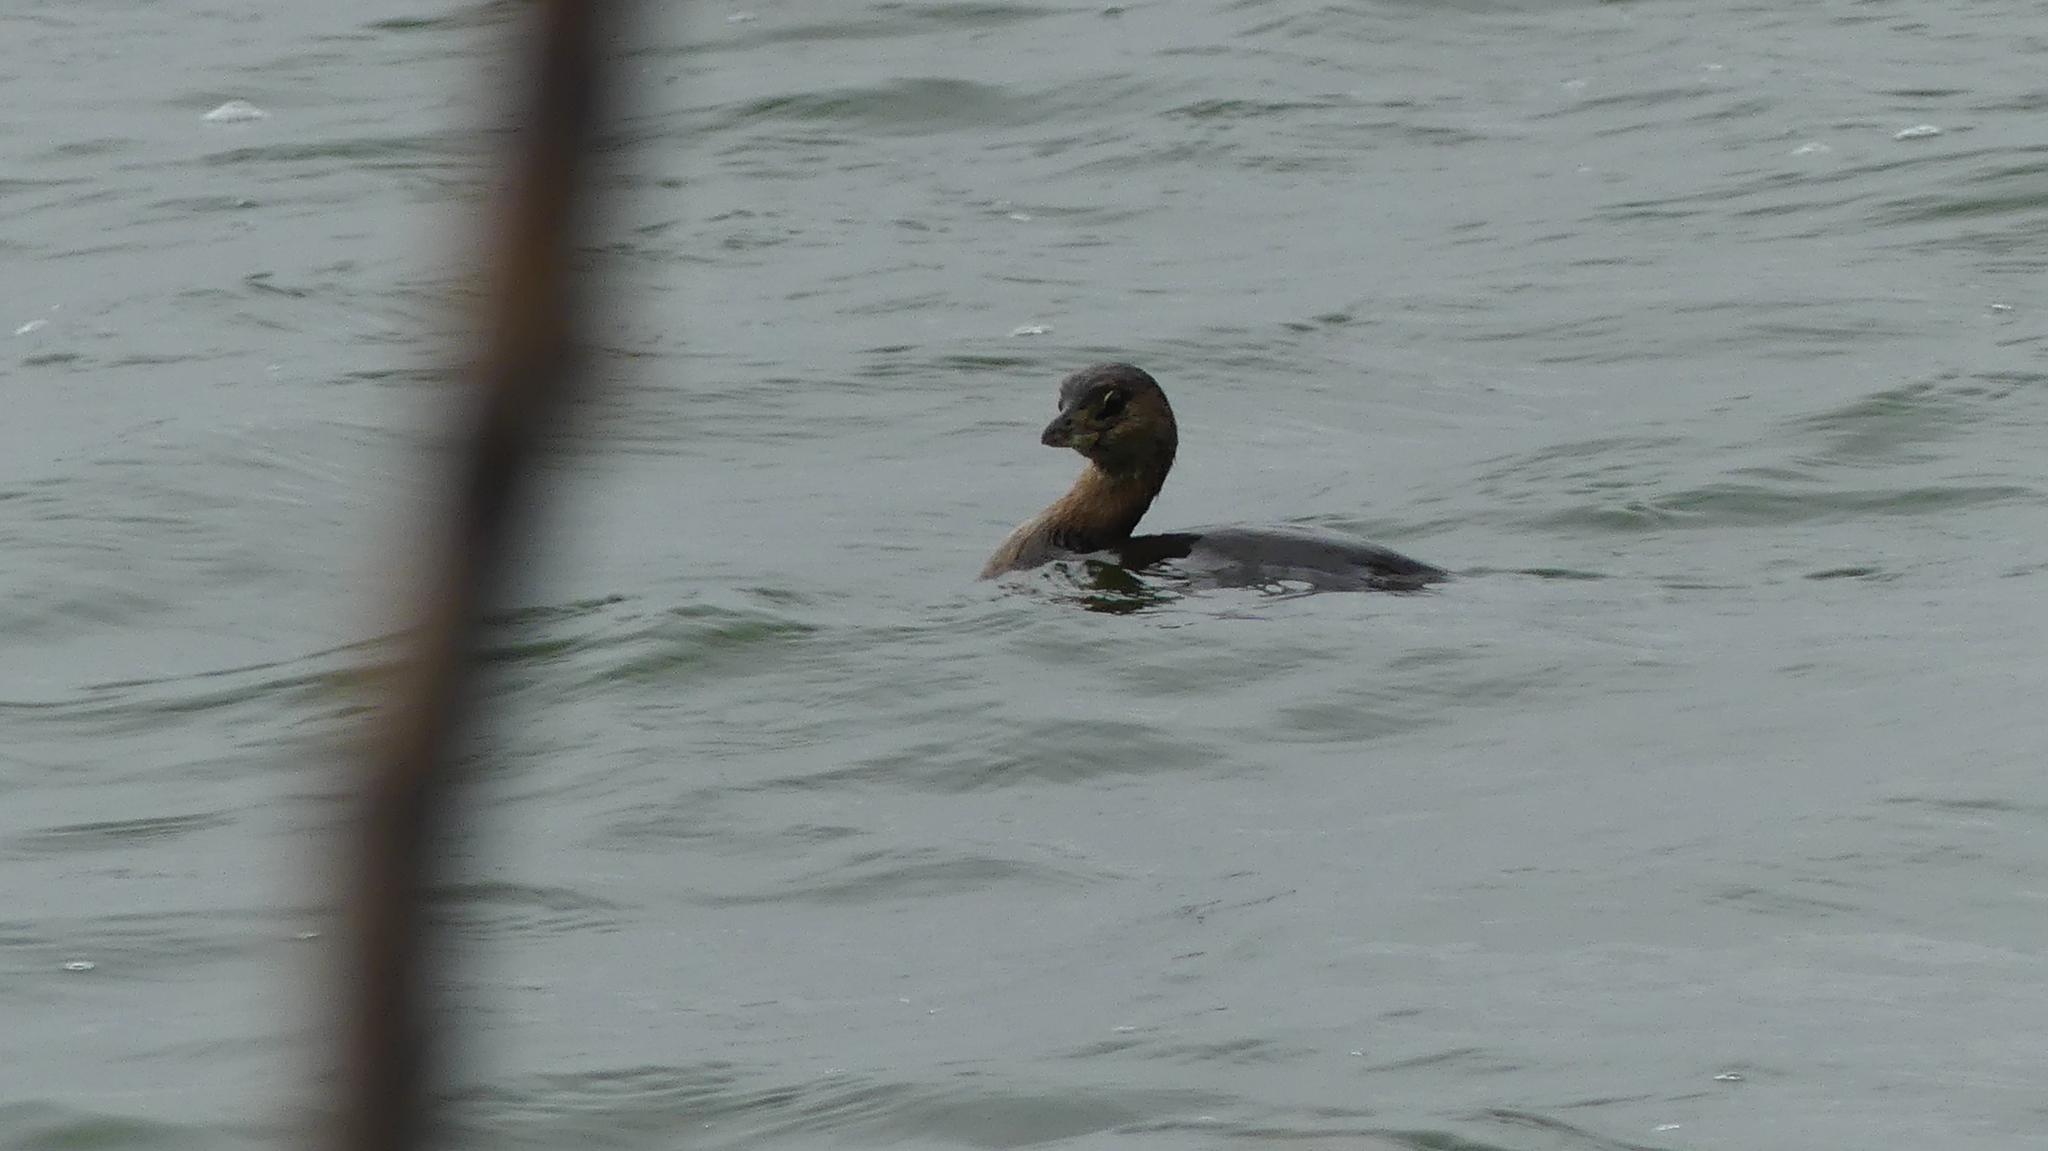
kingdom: Animalia
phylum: Chordata
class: Aves
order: Podicipediformes
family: Podicipedidae
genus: Podilymbus
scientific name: Podilymbus podiceps
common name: Pied-billed grebe
